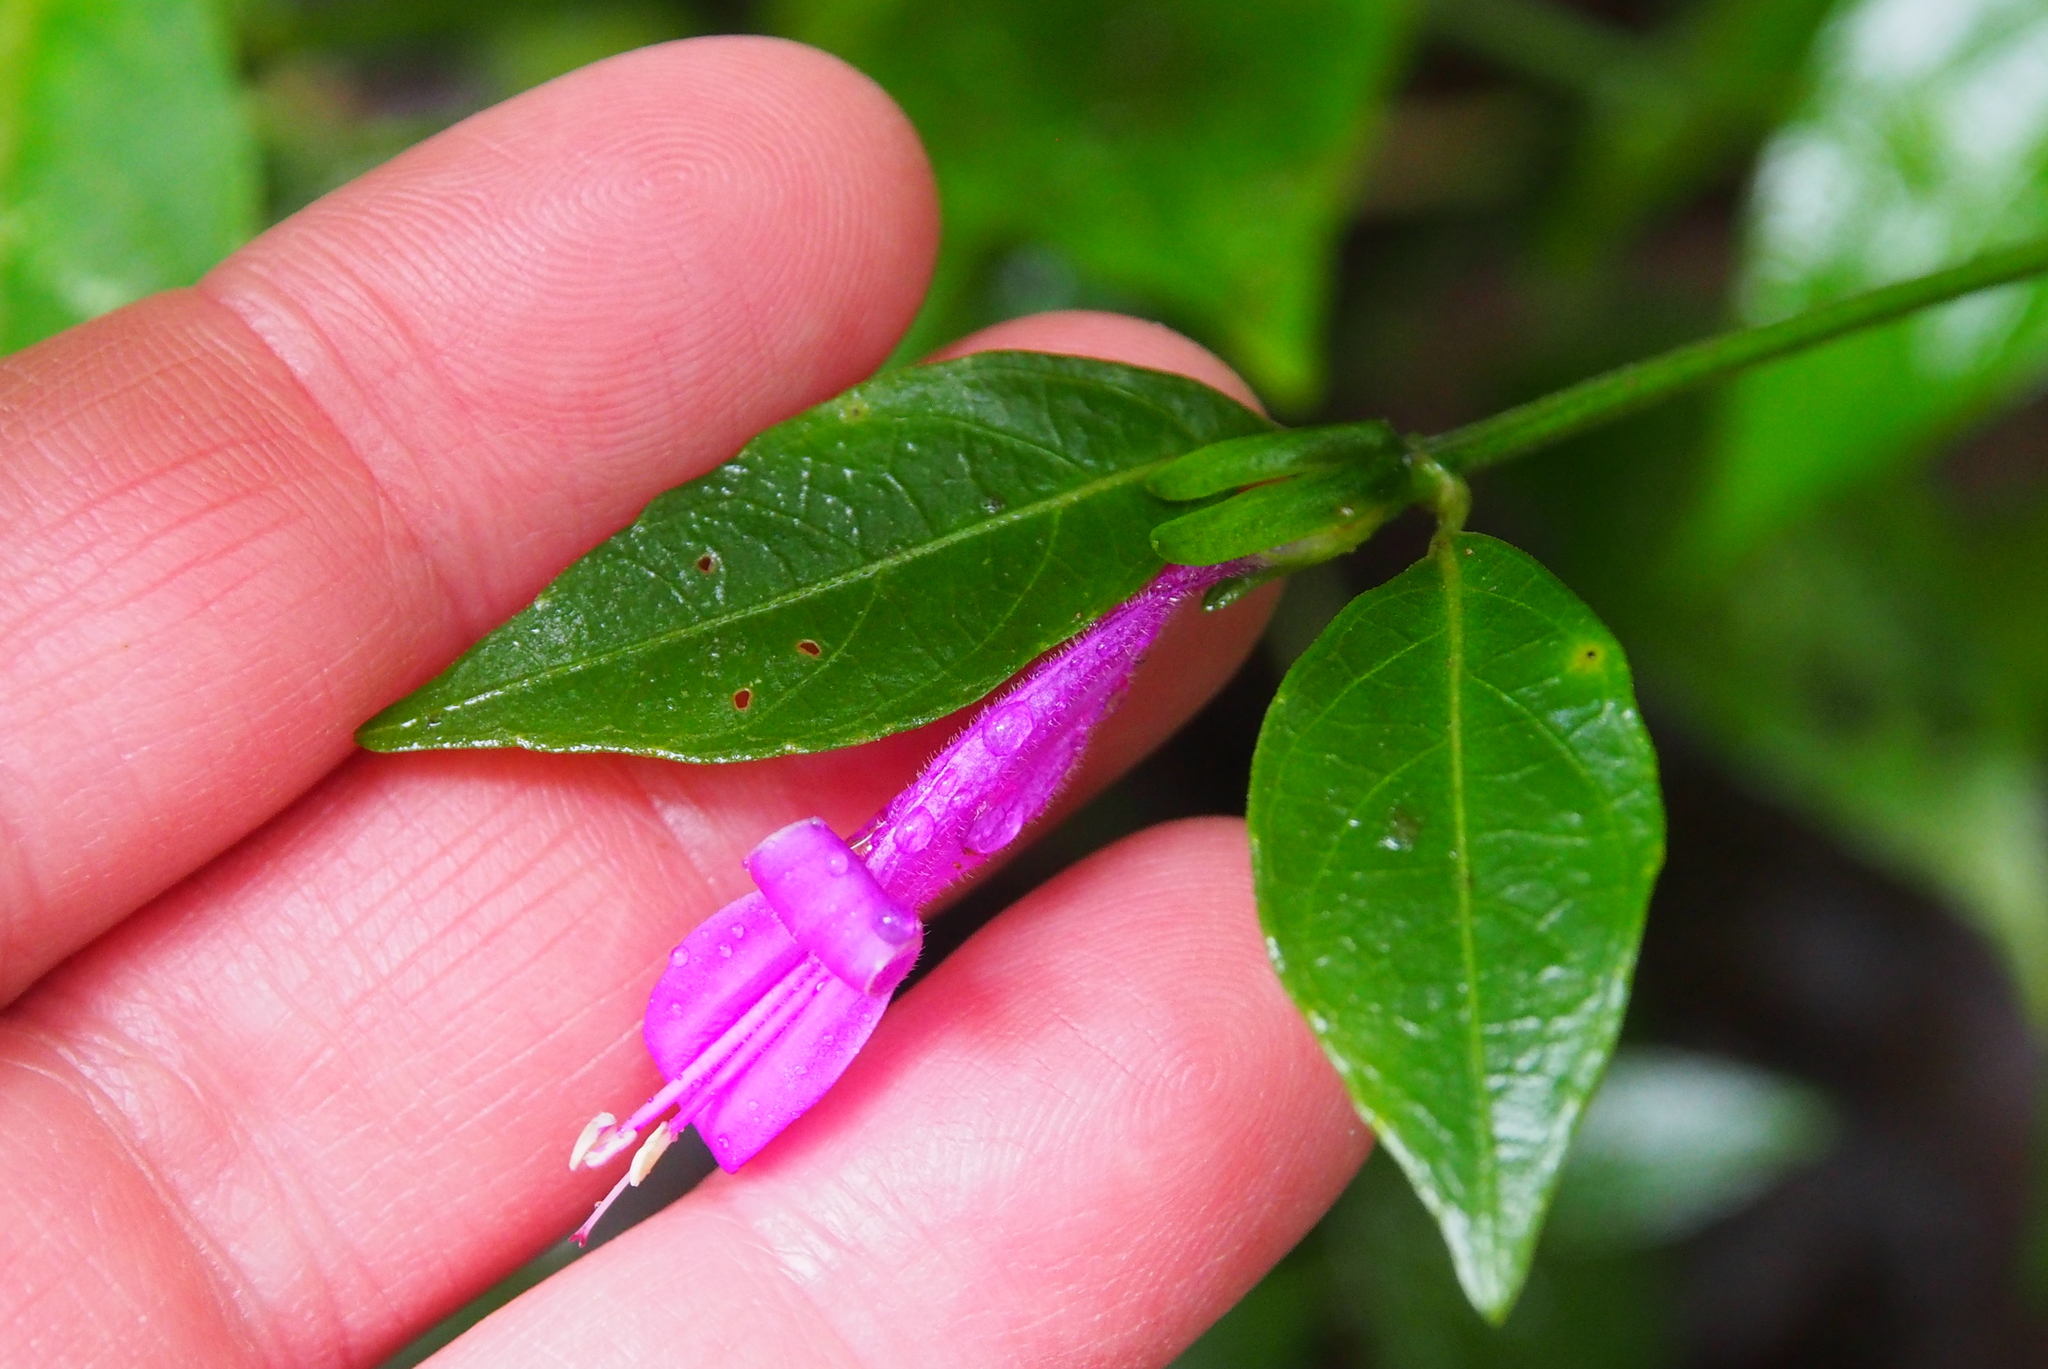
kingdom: Plantae
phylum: Tracheophyta
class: Magnoliopsida
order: Lamiales
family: Acanthaceae
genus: Dicliptera
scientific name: Dicliptera iopus
